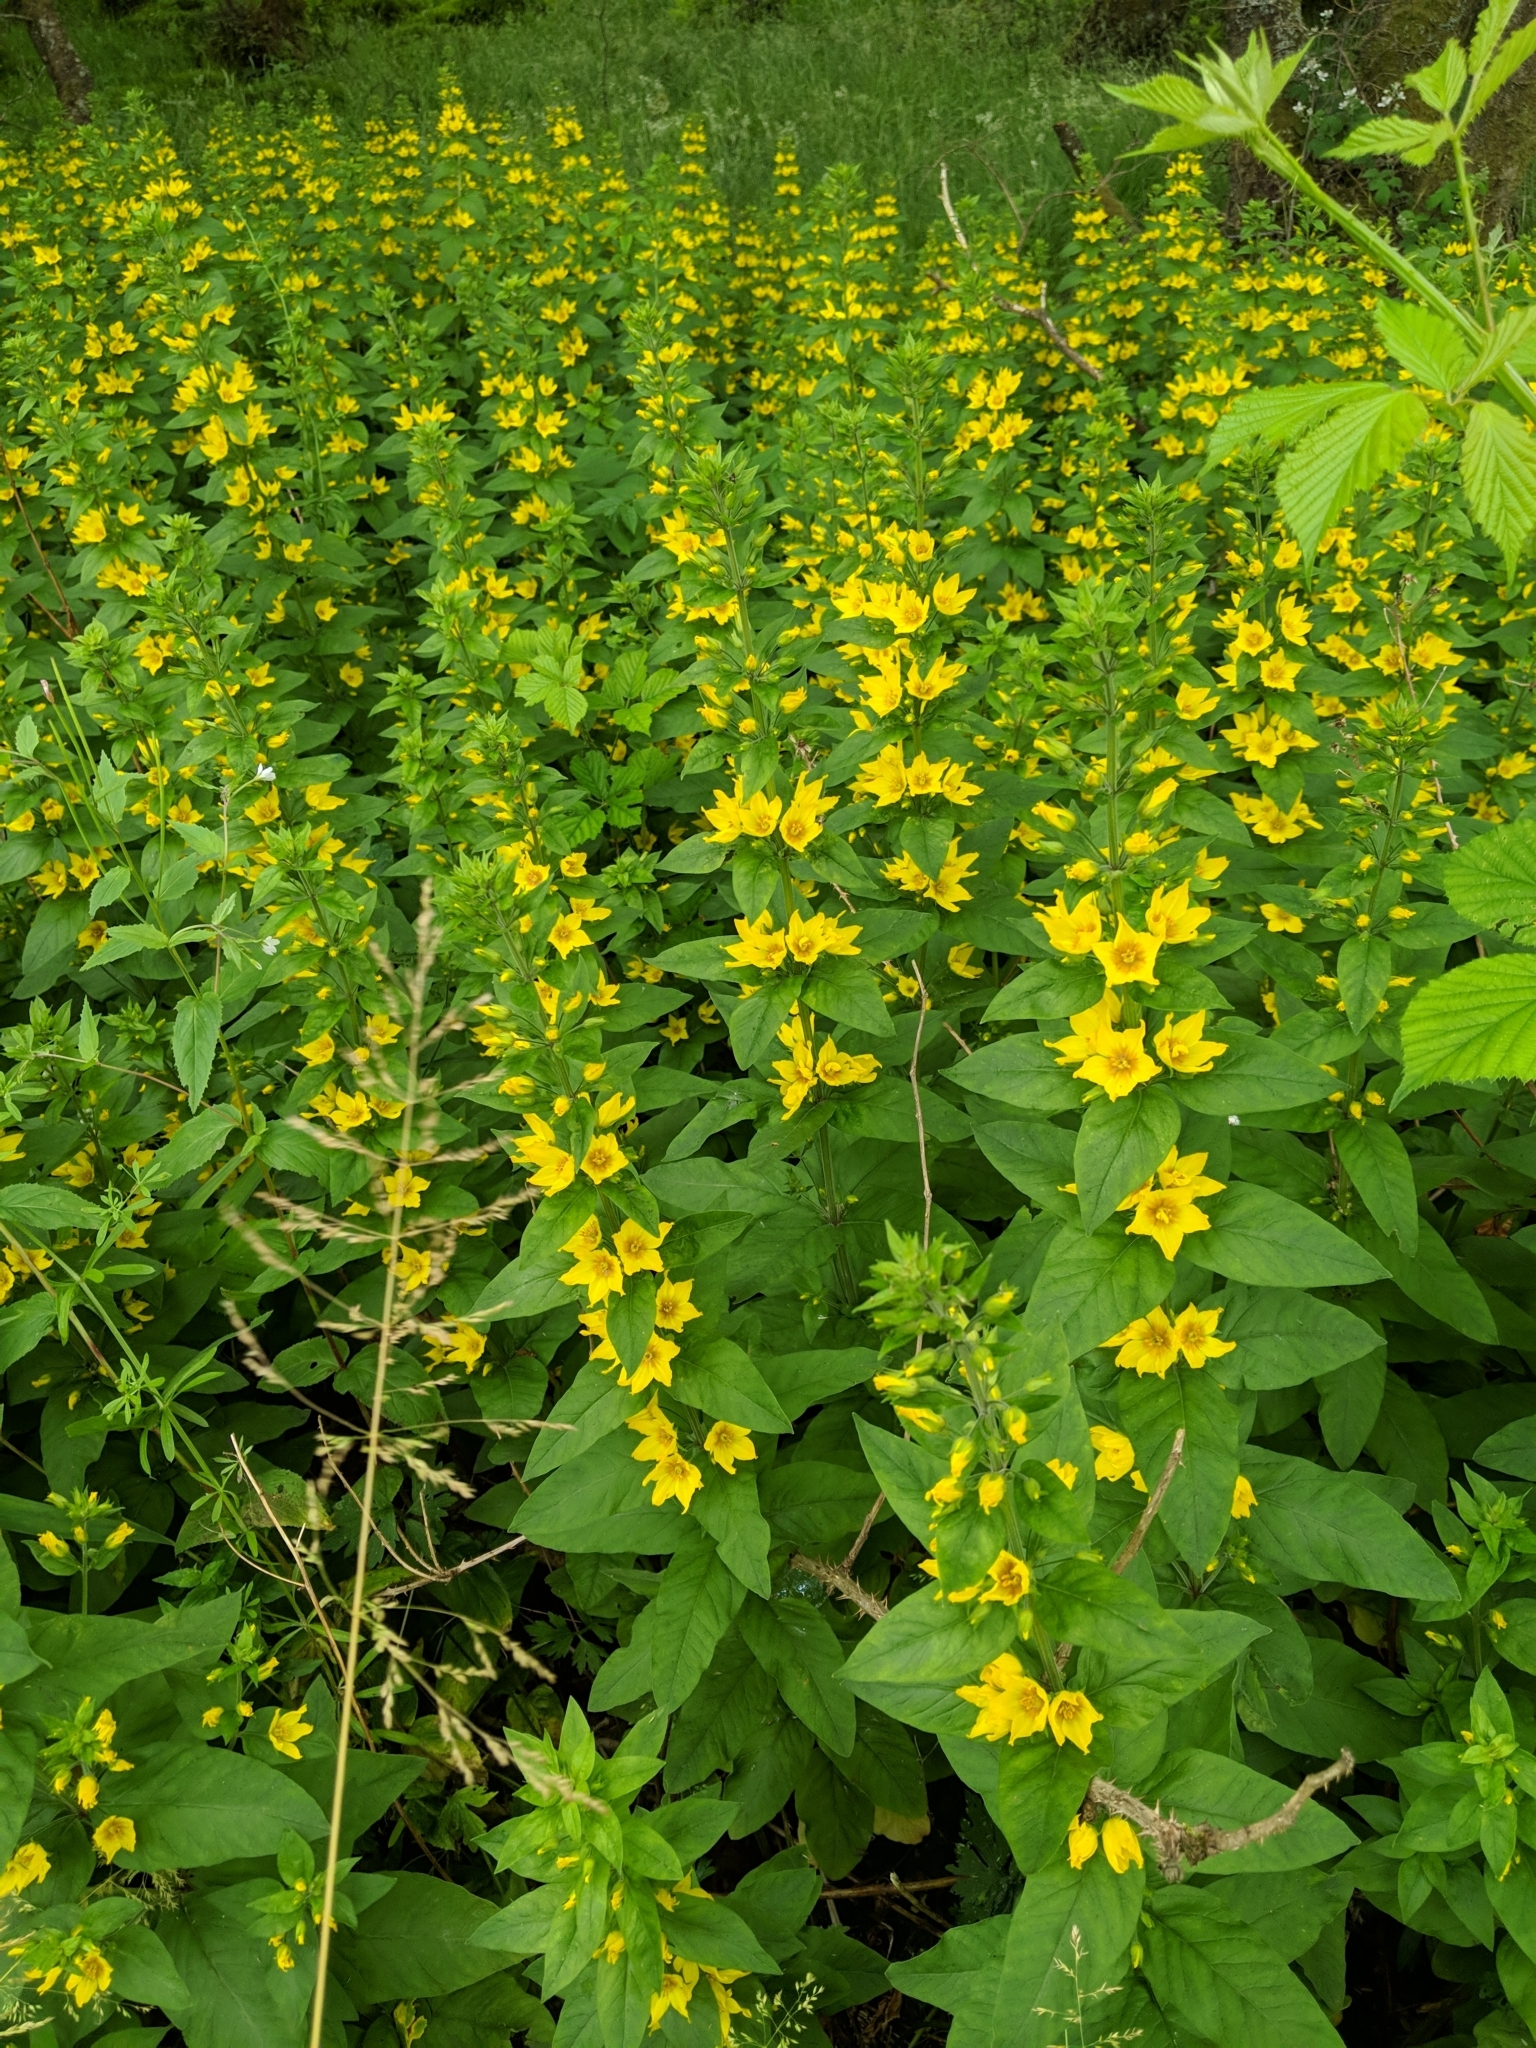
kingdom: Plantae
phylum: Tracheophyta
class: Magnoliopsida
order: Ericales
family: Primulaceae
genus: Lysimachia
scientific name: Lysimachia punctata
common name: Dotted loosestrife
